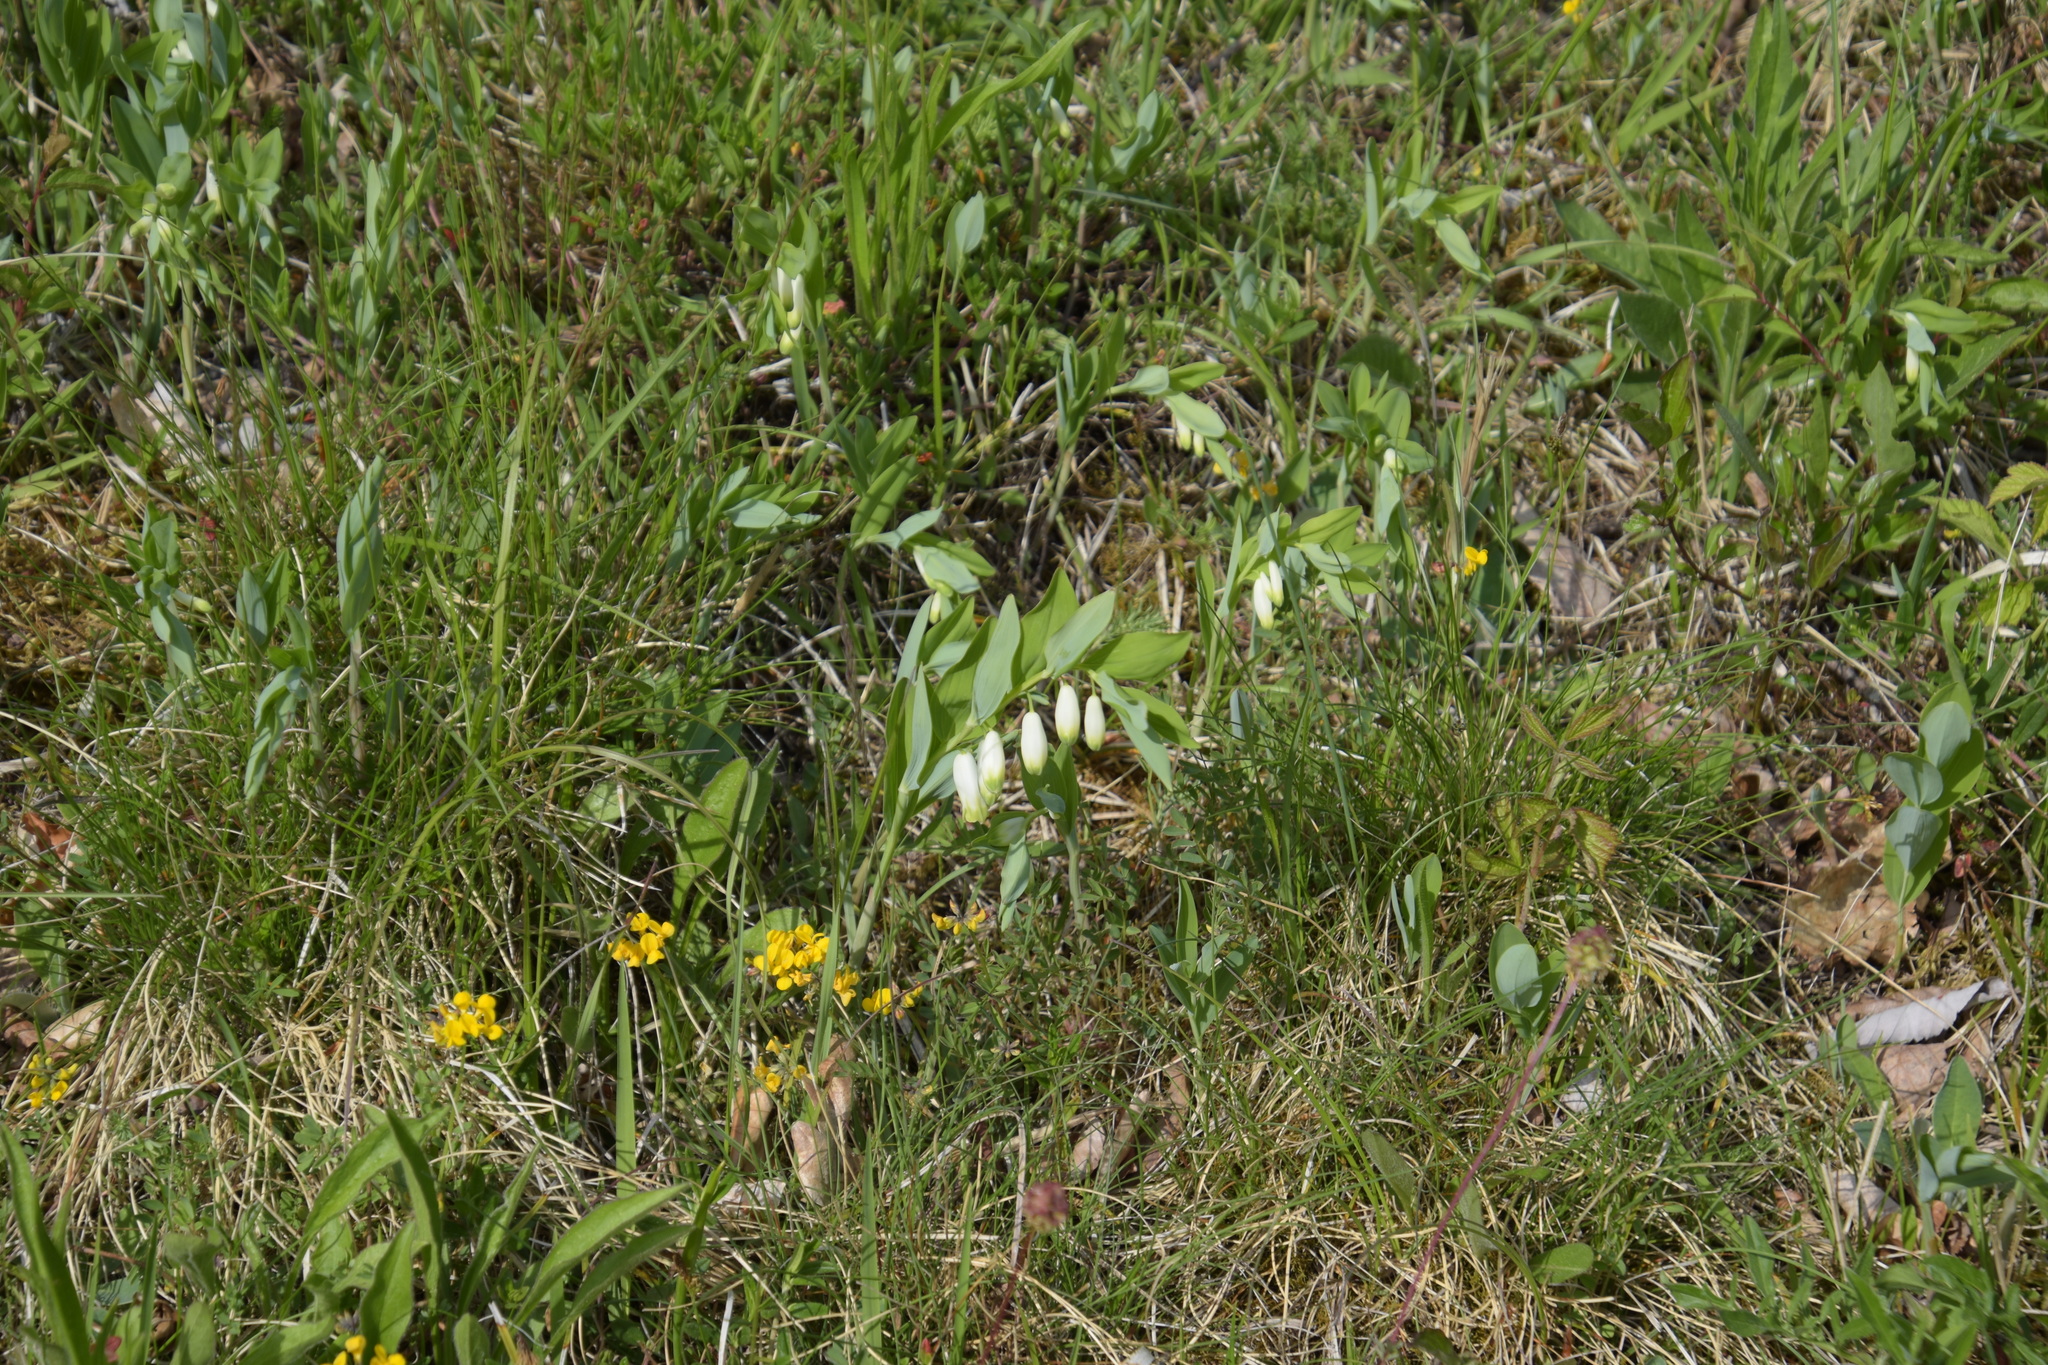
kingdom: Plantae
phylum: Tracheophyta
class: Liliopsida
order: Asparagales
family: Asparagaceae
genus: Polygonatum
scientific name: Polygonatum odoratum
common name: Angular solomon's-seal
